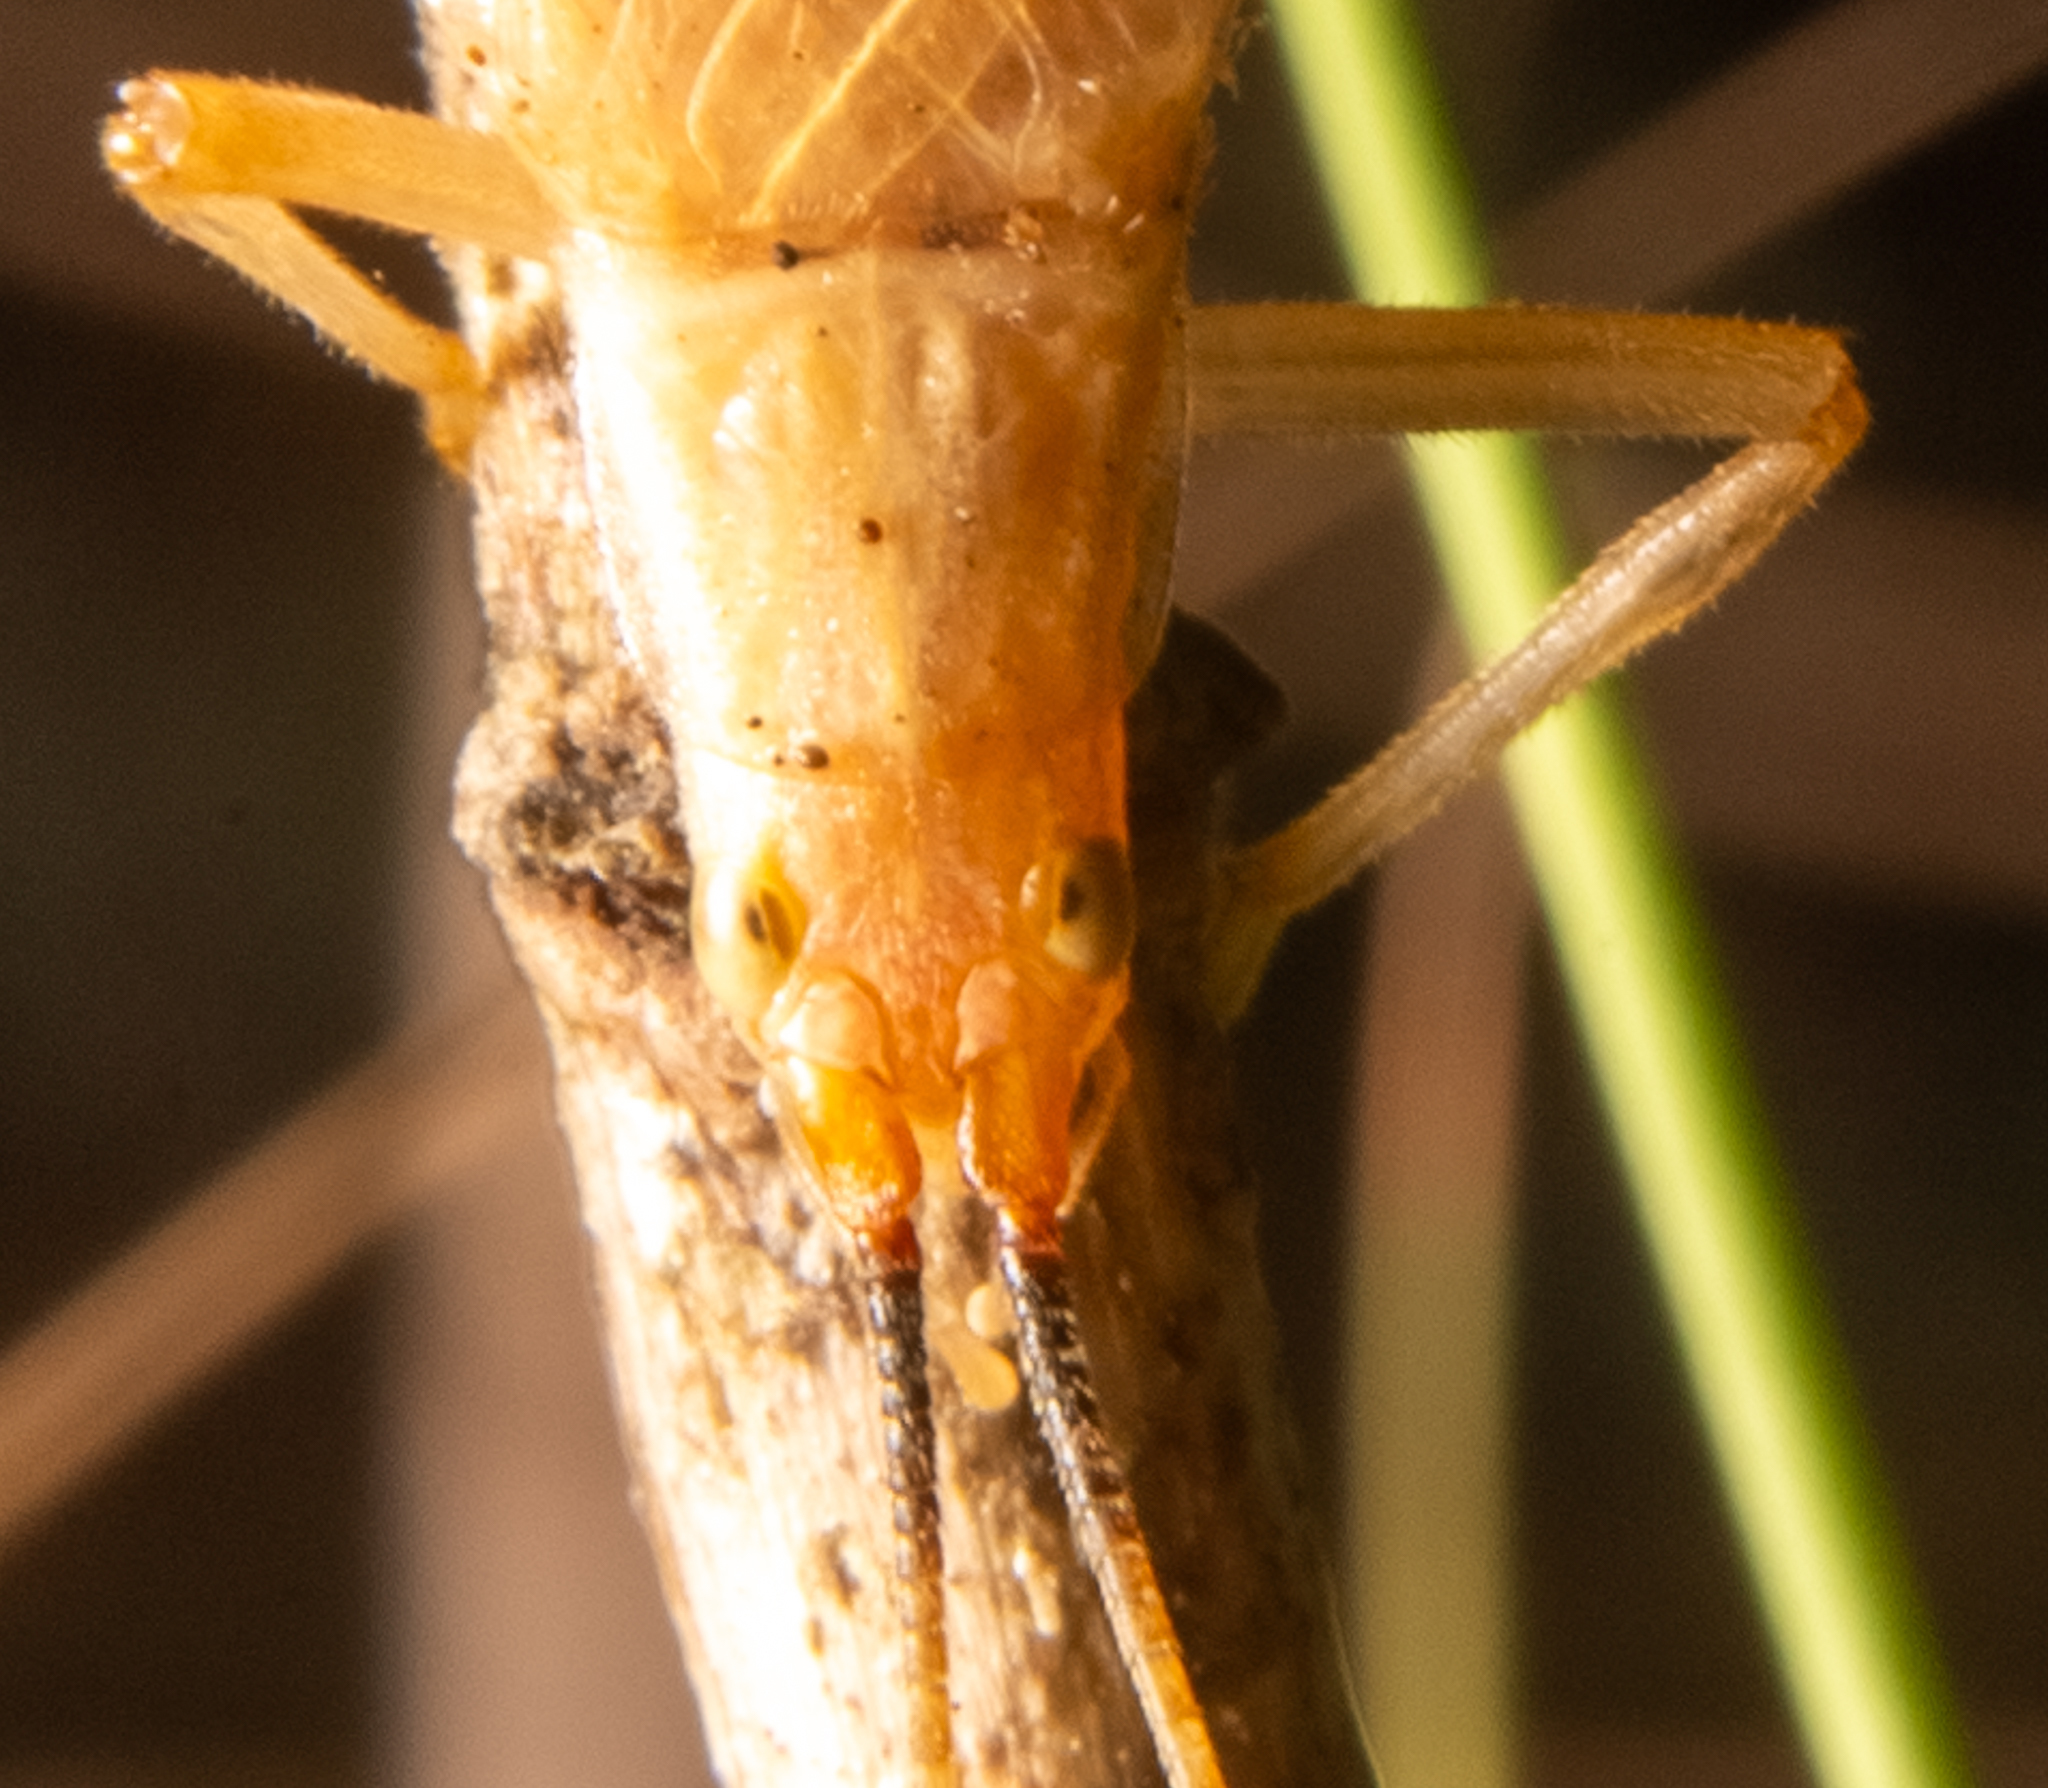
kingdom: Animalia
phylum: Arthropoda
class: Insecta
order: Orthoptera
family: Gryllidae
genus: Oecanthus
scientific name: Oecanthus californicus
